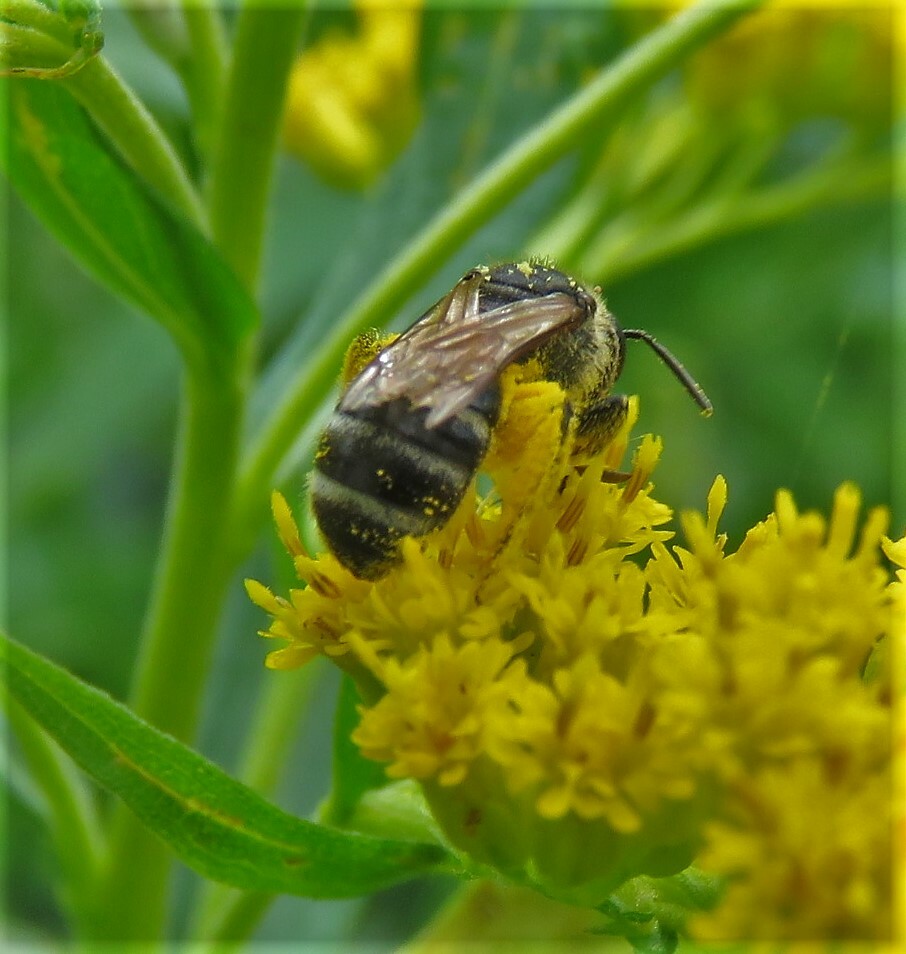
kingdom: Animalia
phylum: Arthropoda
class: Insecta
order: Hymenoptera
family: Halictidae
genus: Lasioglossum
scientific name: Lasioglossum
